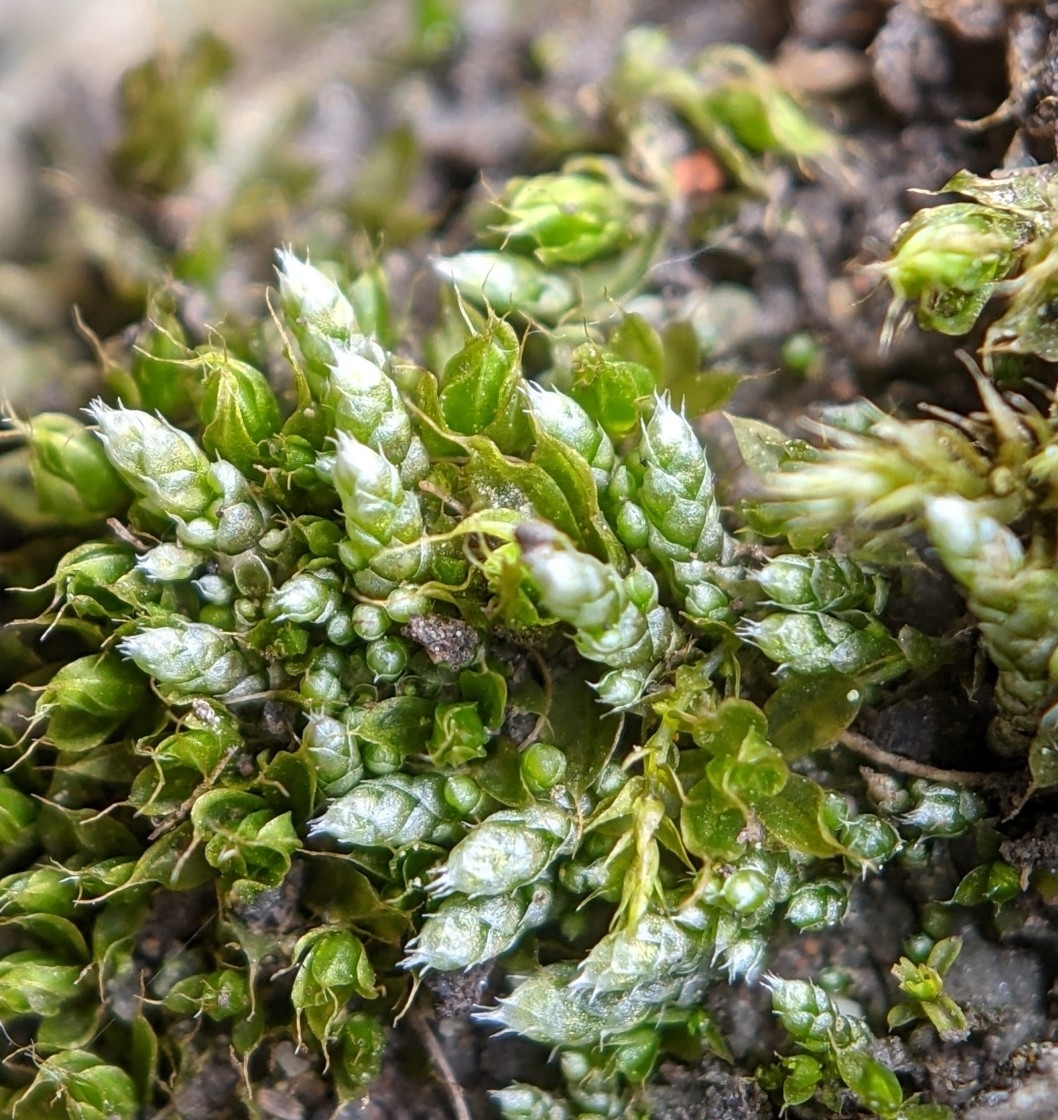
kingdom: Plantae
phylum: Bryophyta
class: Bryopsida
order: Bryales
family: Bryaceae
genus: Bryum
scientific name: Bryum argenteum
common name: Silver-moss
